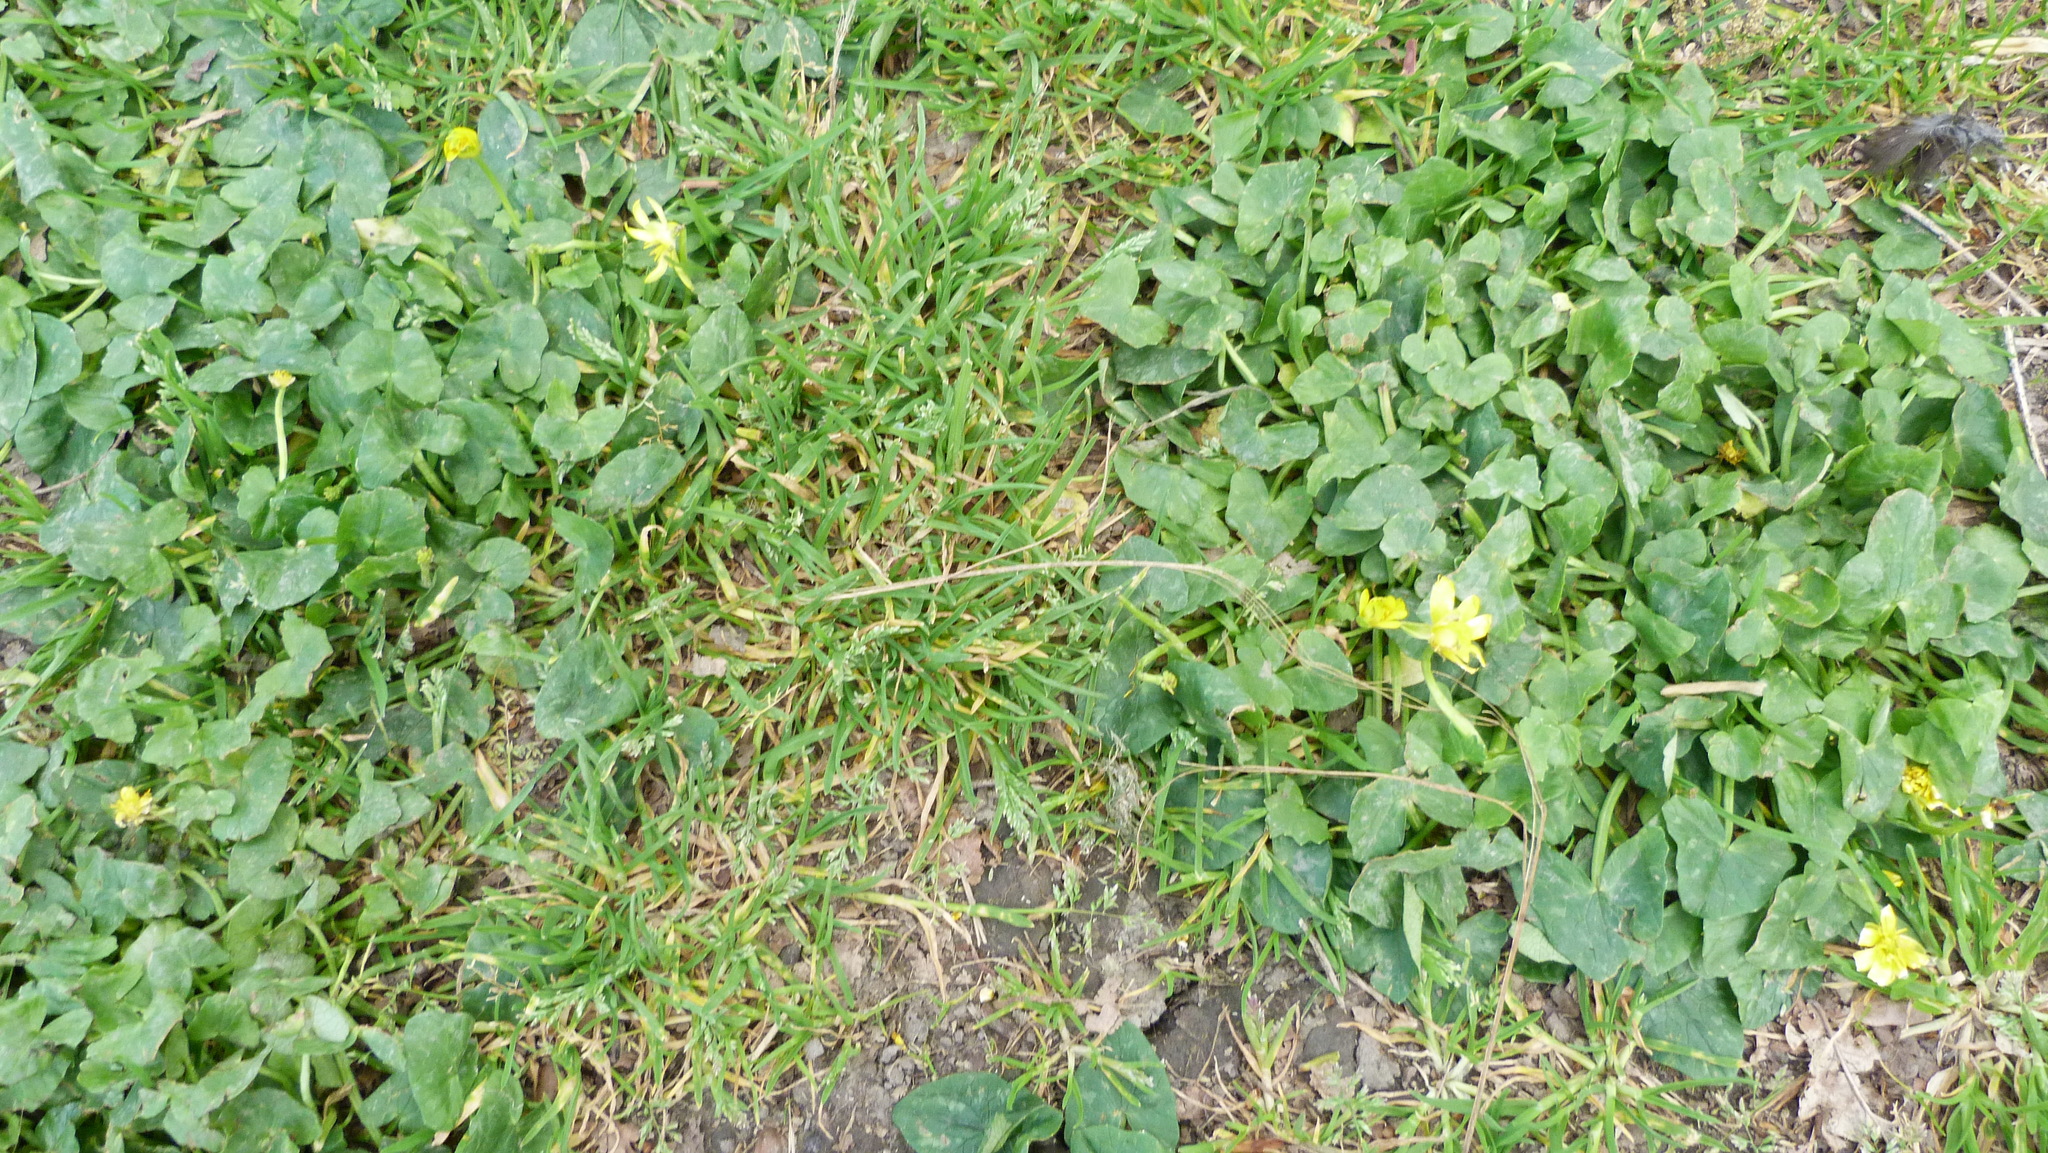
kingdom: Plantae
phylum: Tracheophyta
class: Magnoliopsida
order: Ranunculales
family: Ranunculaceae
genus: Ficaria
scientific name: Ficaria verna
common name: Lesser celandine
